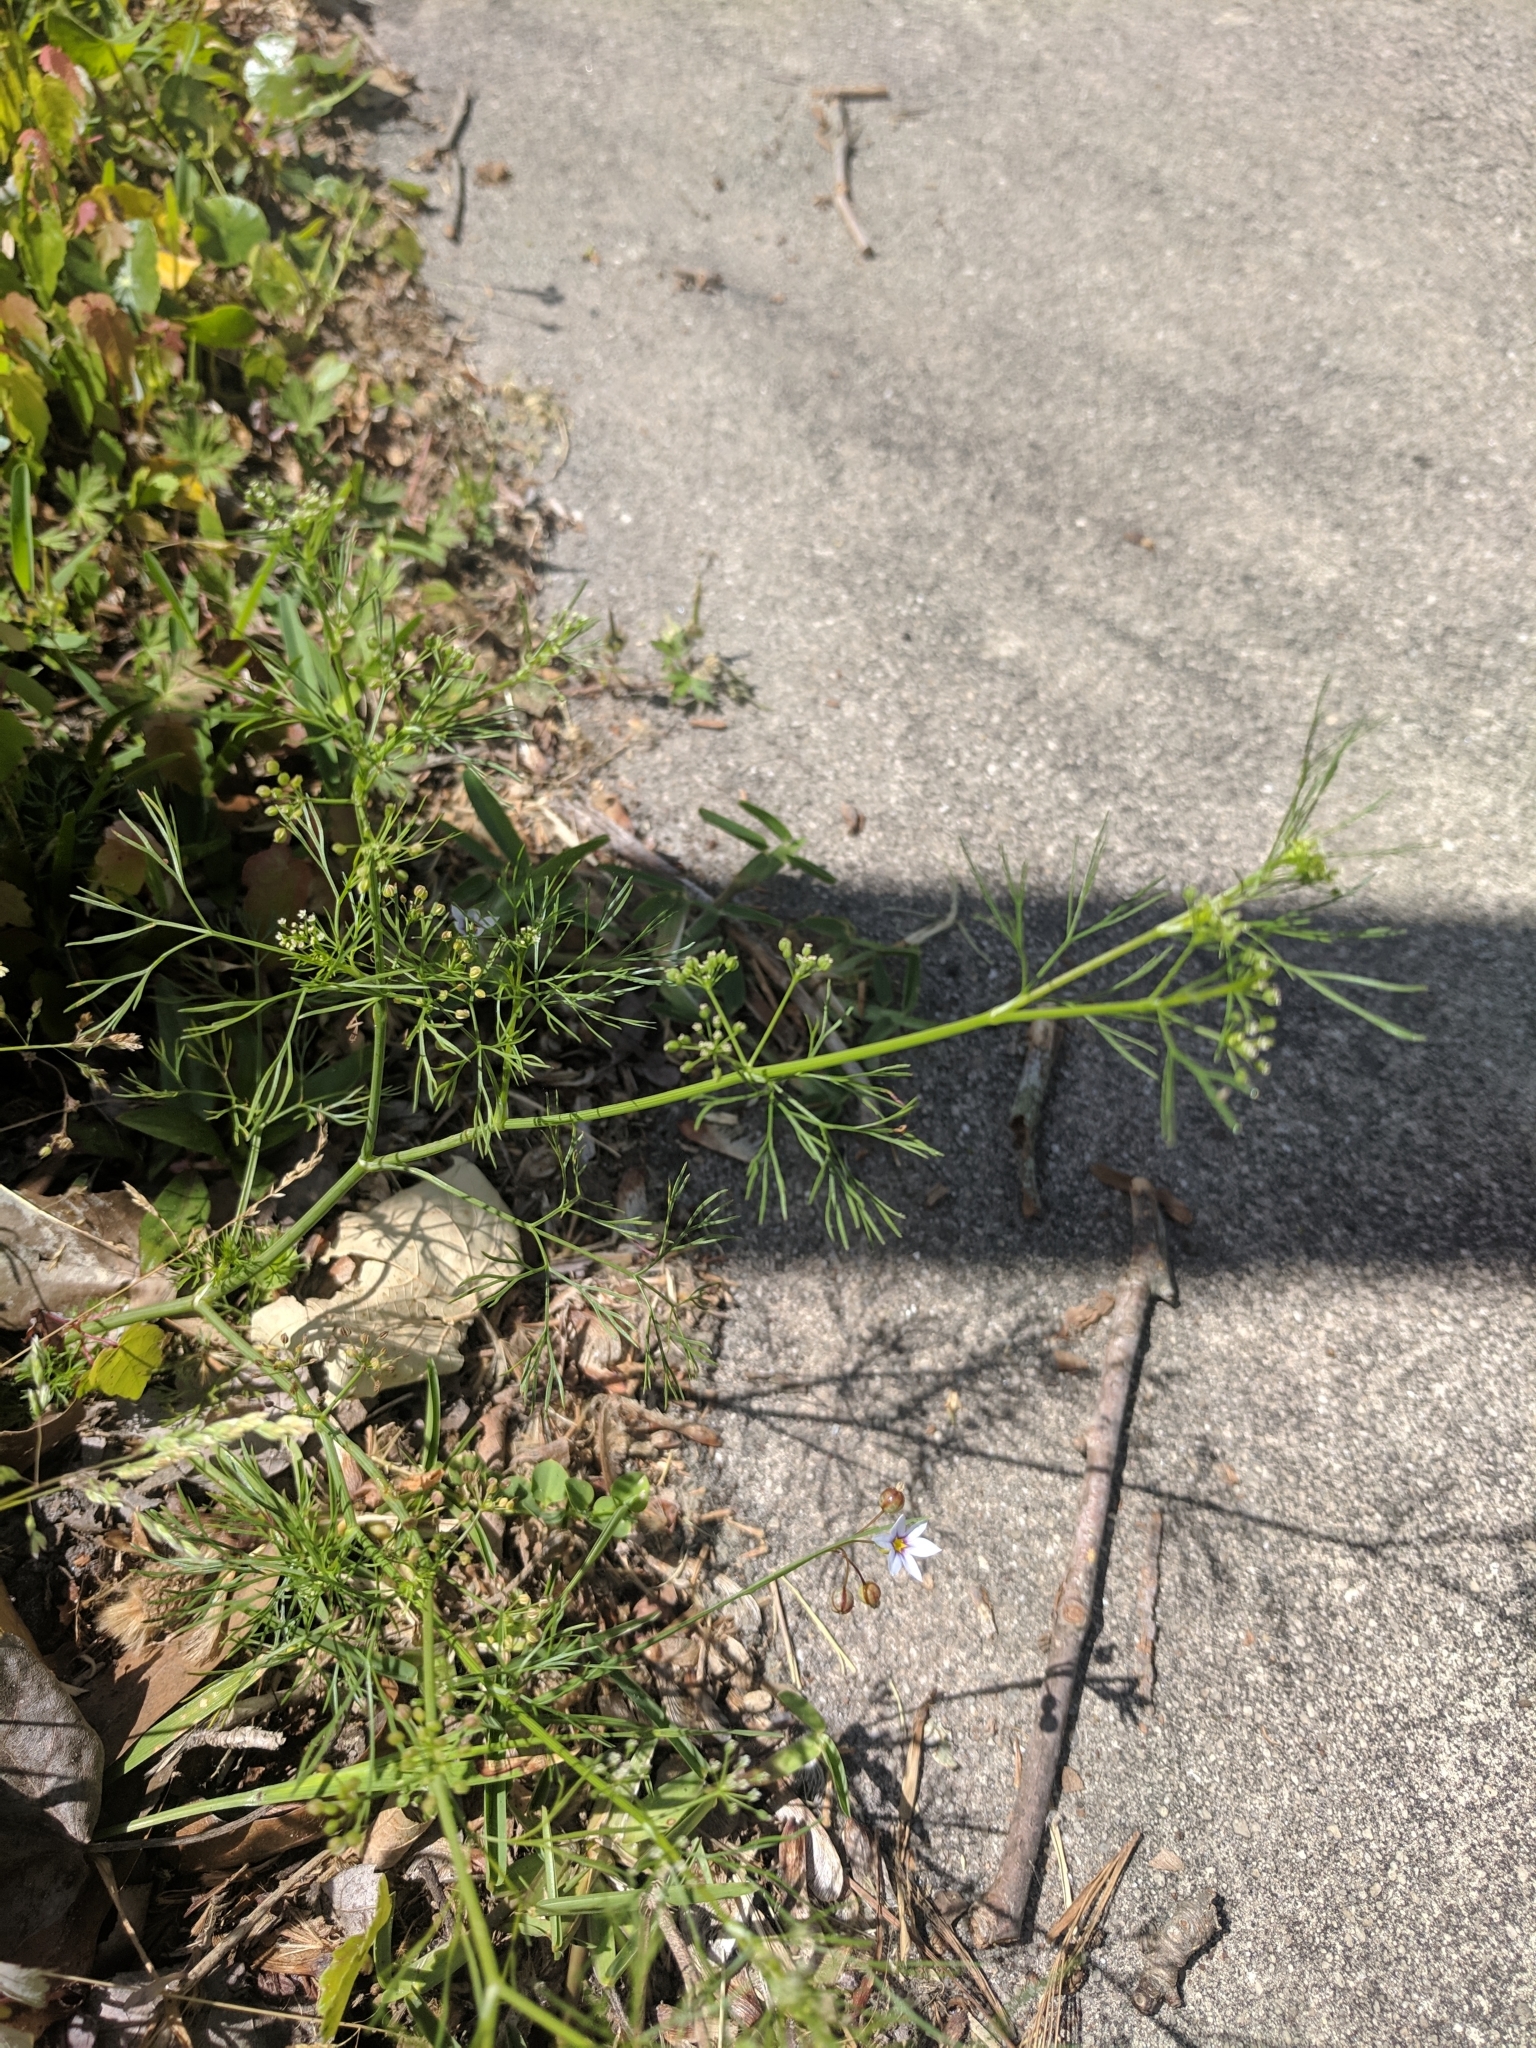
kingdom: Plantae
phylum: Tracheophyta
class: Magnoliopsida
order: Apiales
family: Apiaceae
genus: Ptilimnium
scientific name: Ptilimnium capillaceum
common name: Herbwilliam
